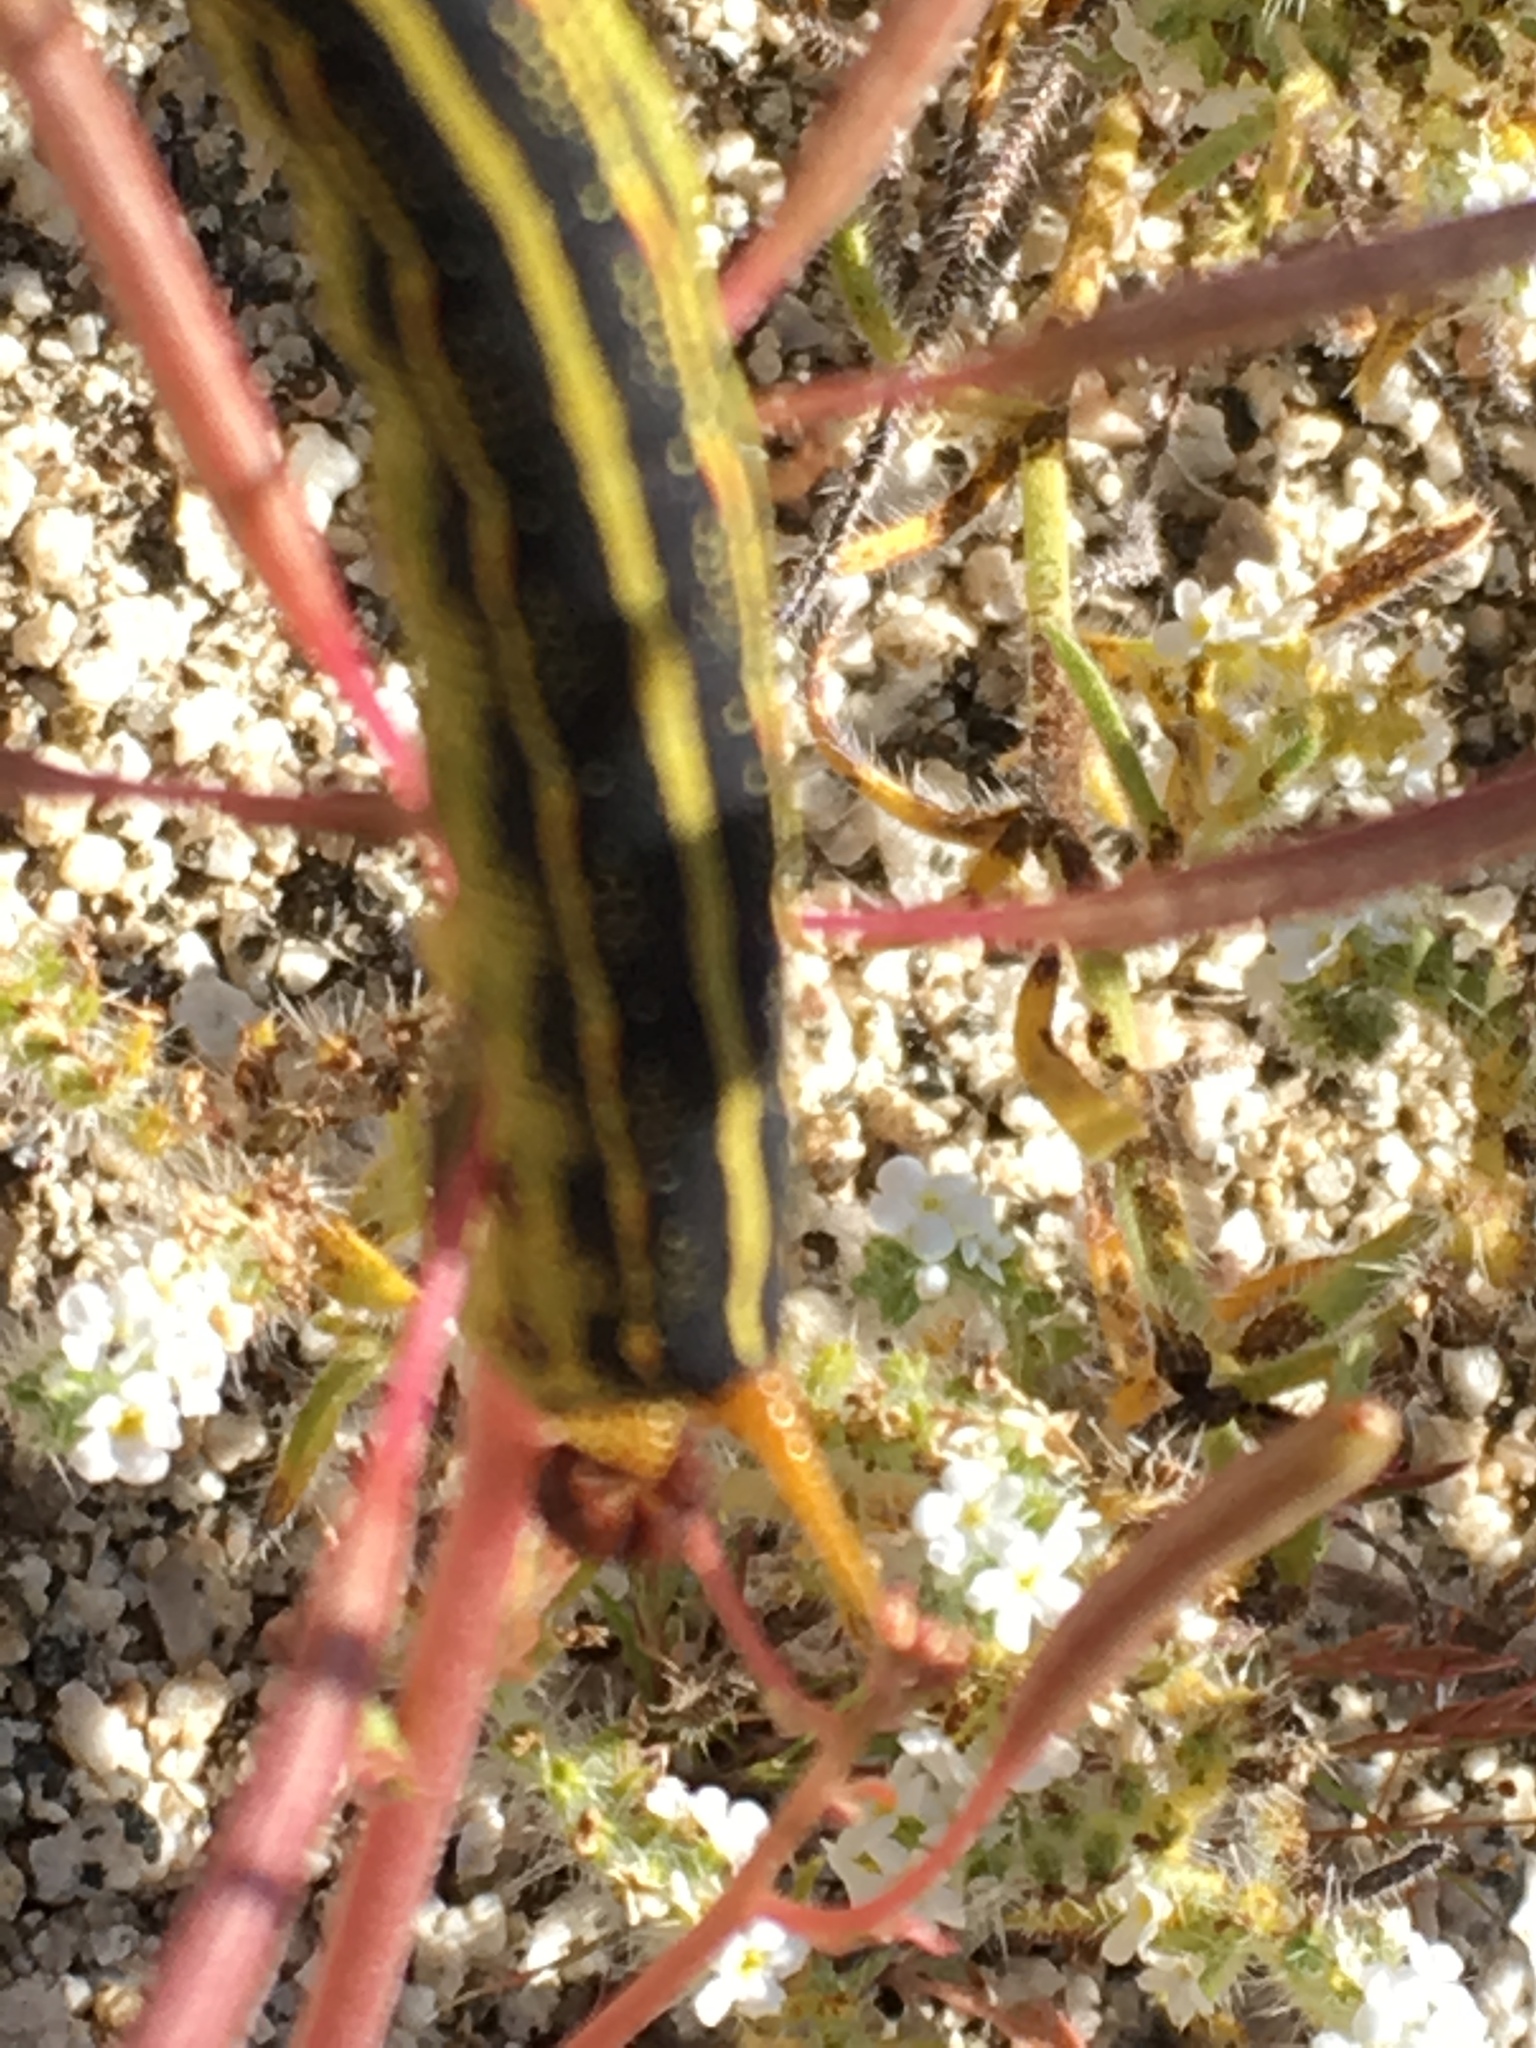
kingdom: Animalia
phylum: Arthropoda
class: Insecta
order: Lepidoptera
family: Sphingidae
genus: Hyles
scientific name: Hyles lineata
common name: White-lined sphinx
